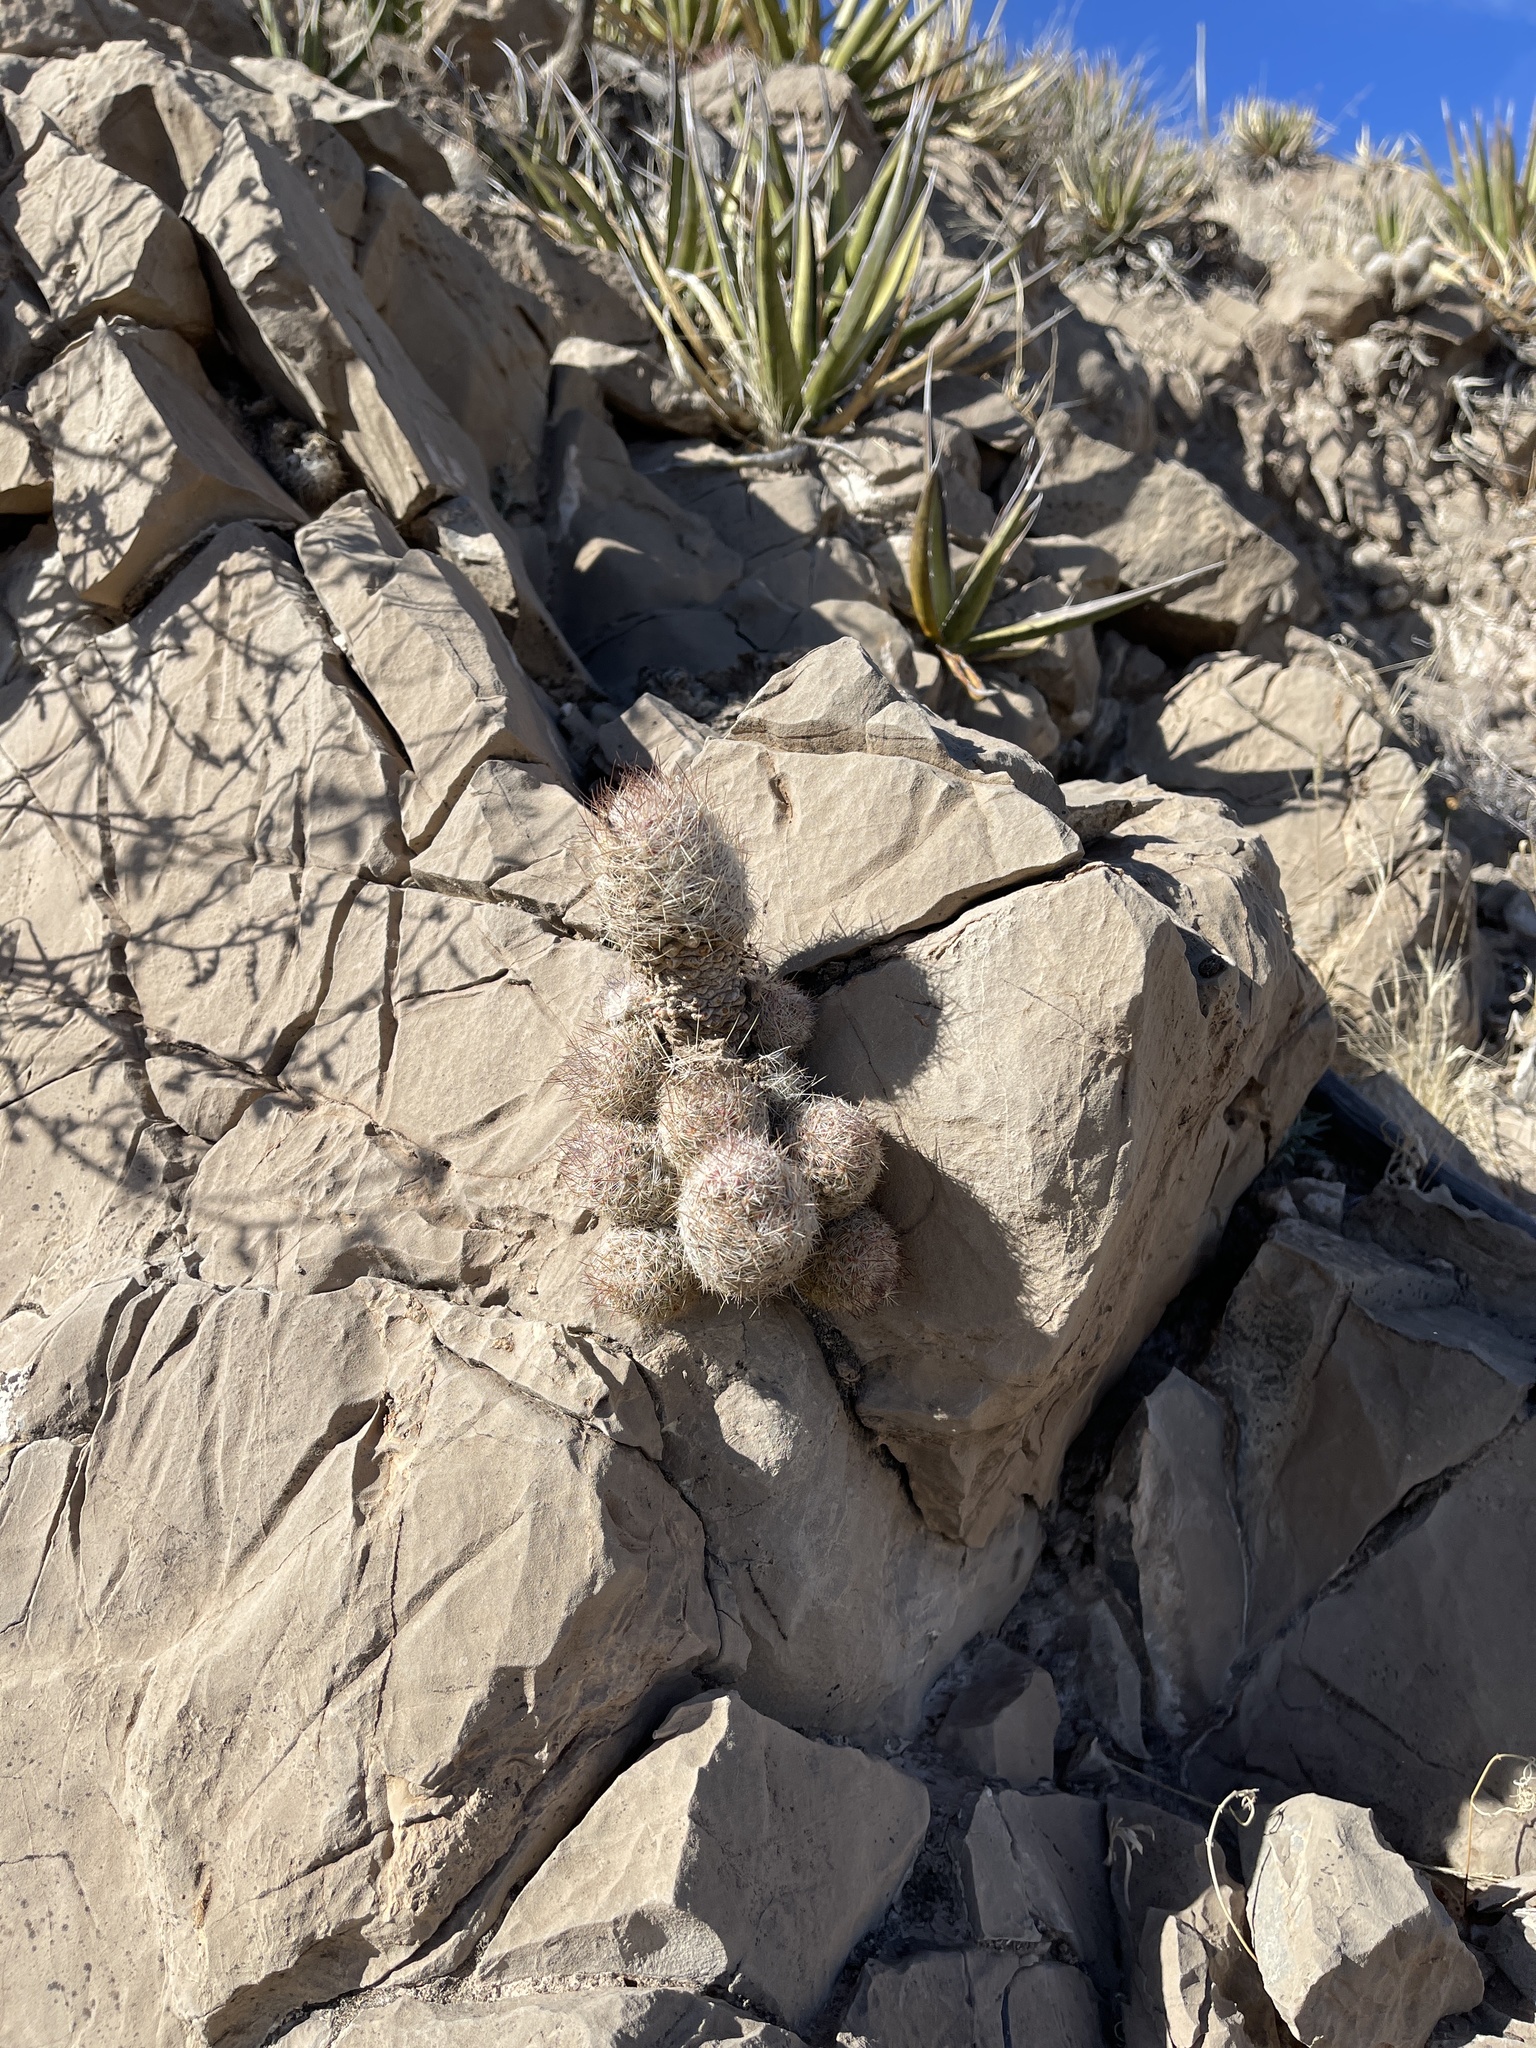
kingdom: Plantae
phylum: Tracheophyta
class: Magnoliopsida
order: Caryophyllales
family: Cactaceae
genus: Pelecyphora
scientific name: Pelecyphora tuberculosa
